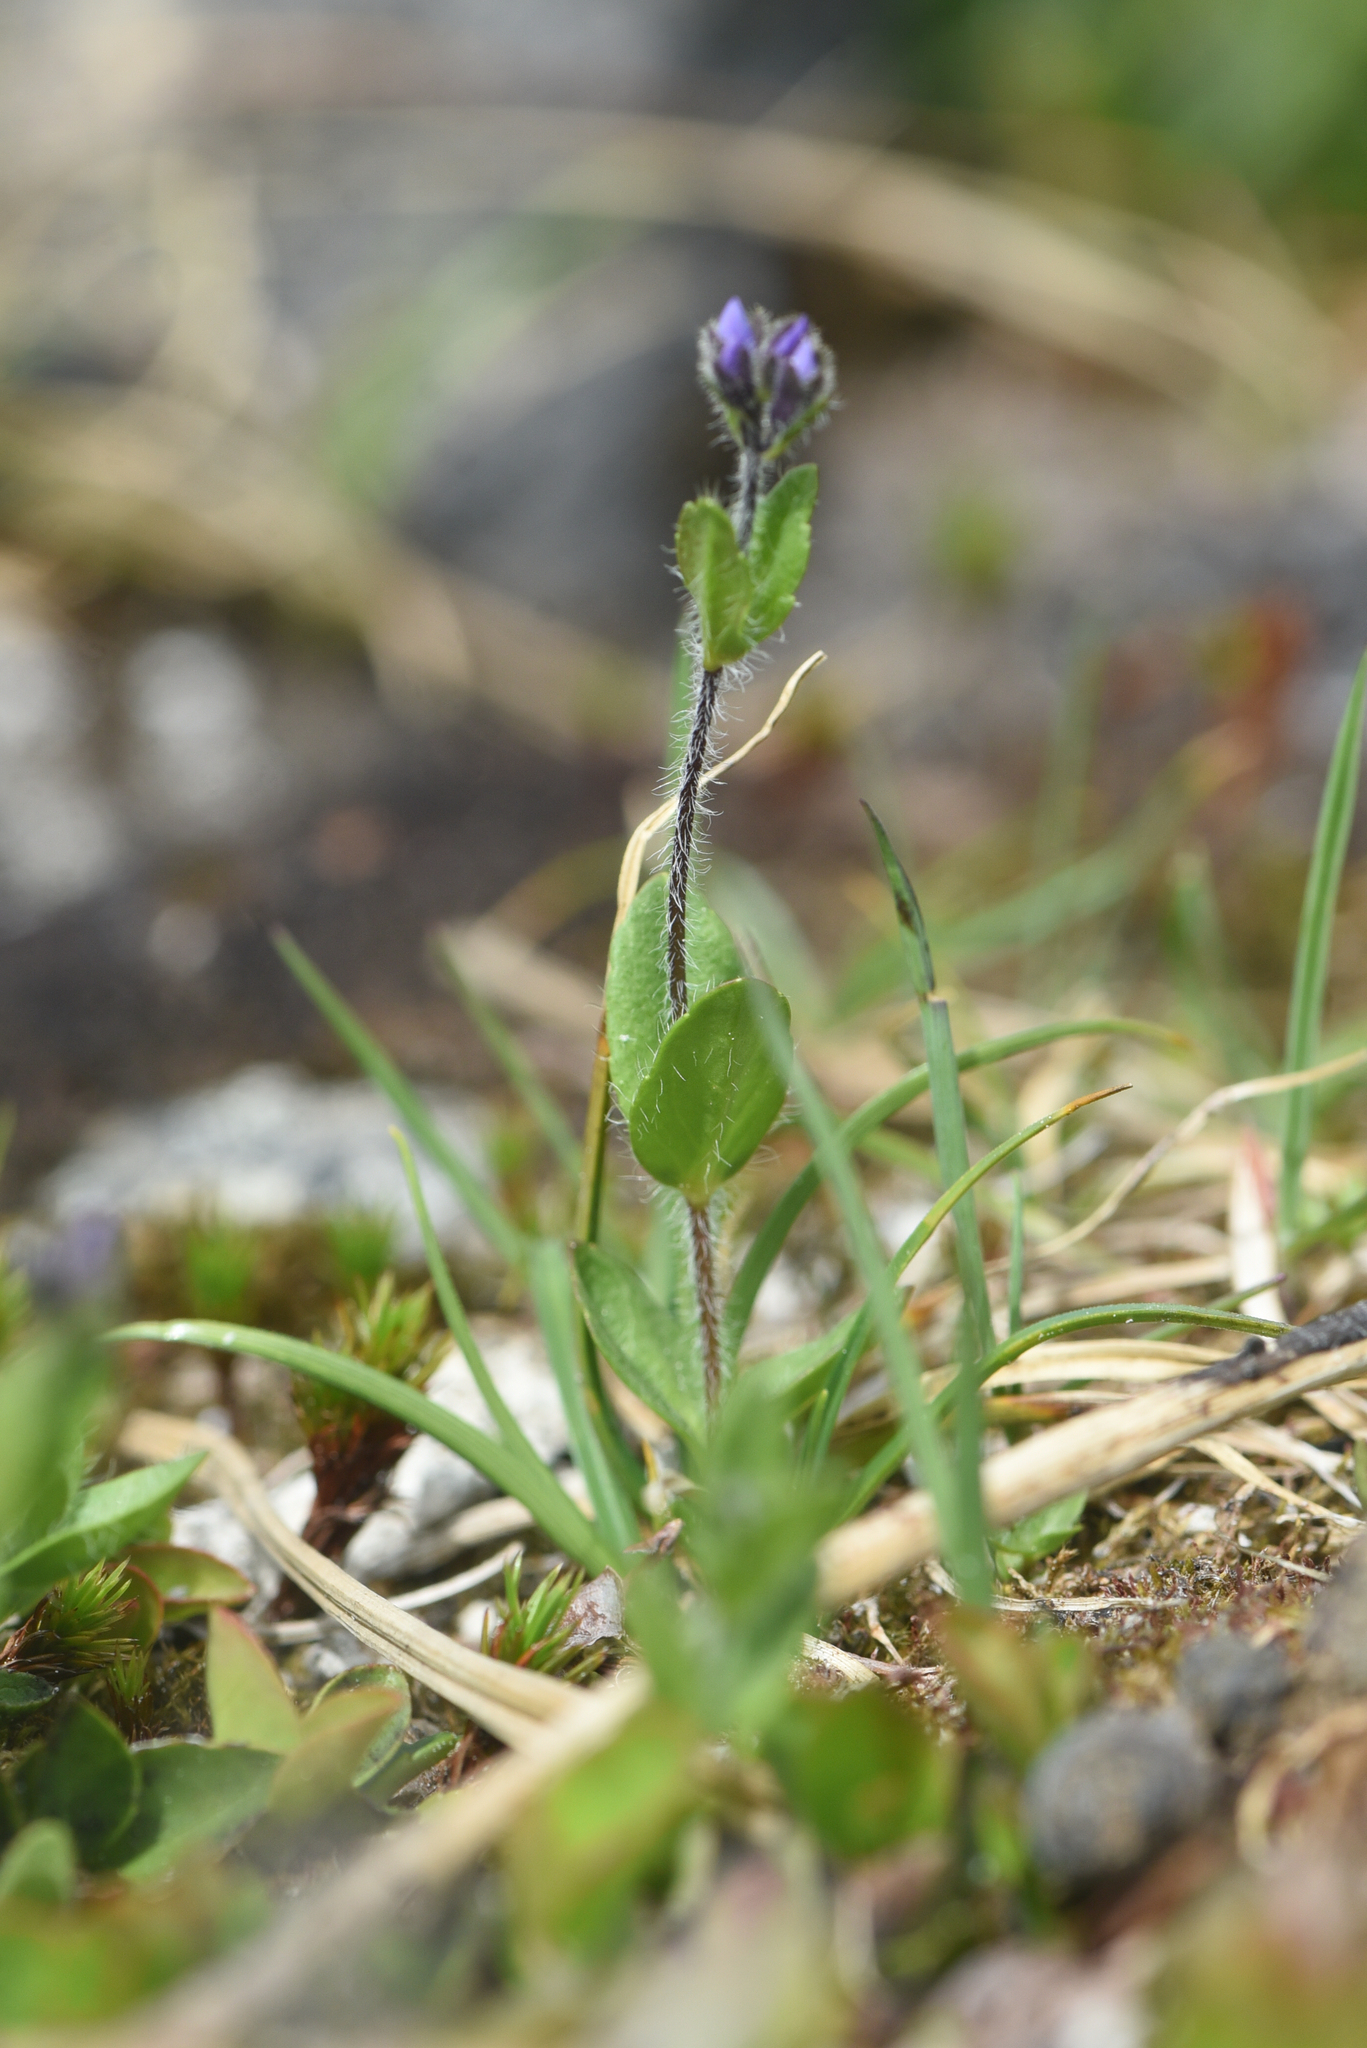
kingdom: Plantae
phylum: Tracheophyta
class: Magnoliopsida
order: Lamiales
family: Plantaginaceae
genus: Veronica
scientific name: Veronica wormskjoldii
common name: American alpine speedwell
